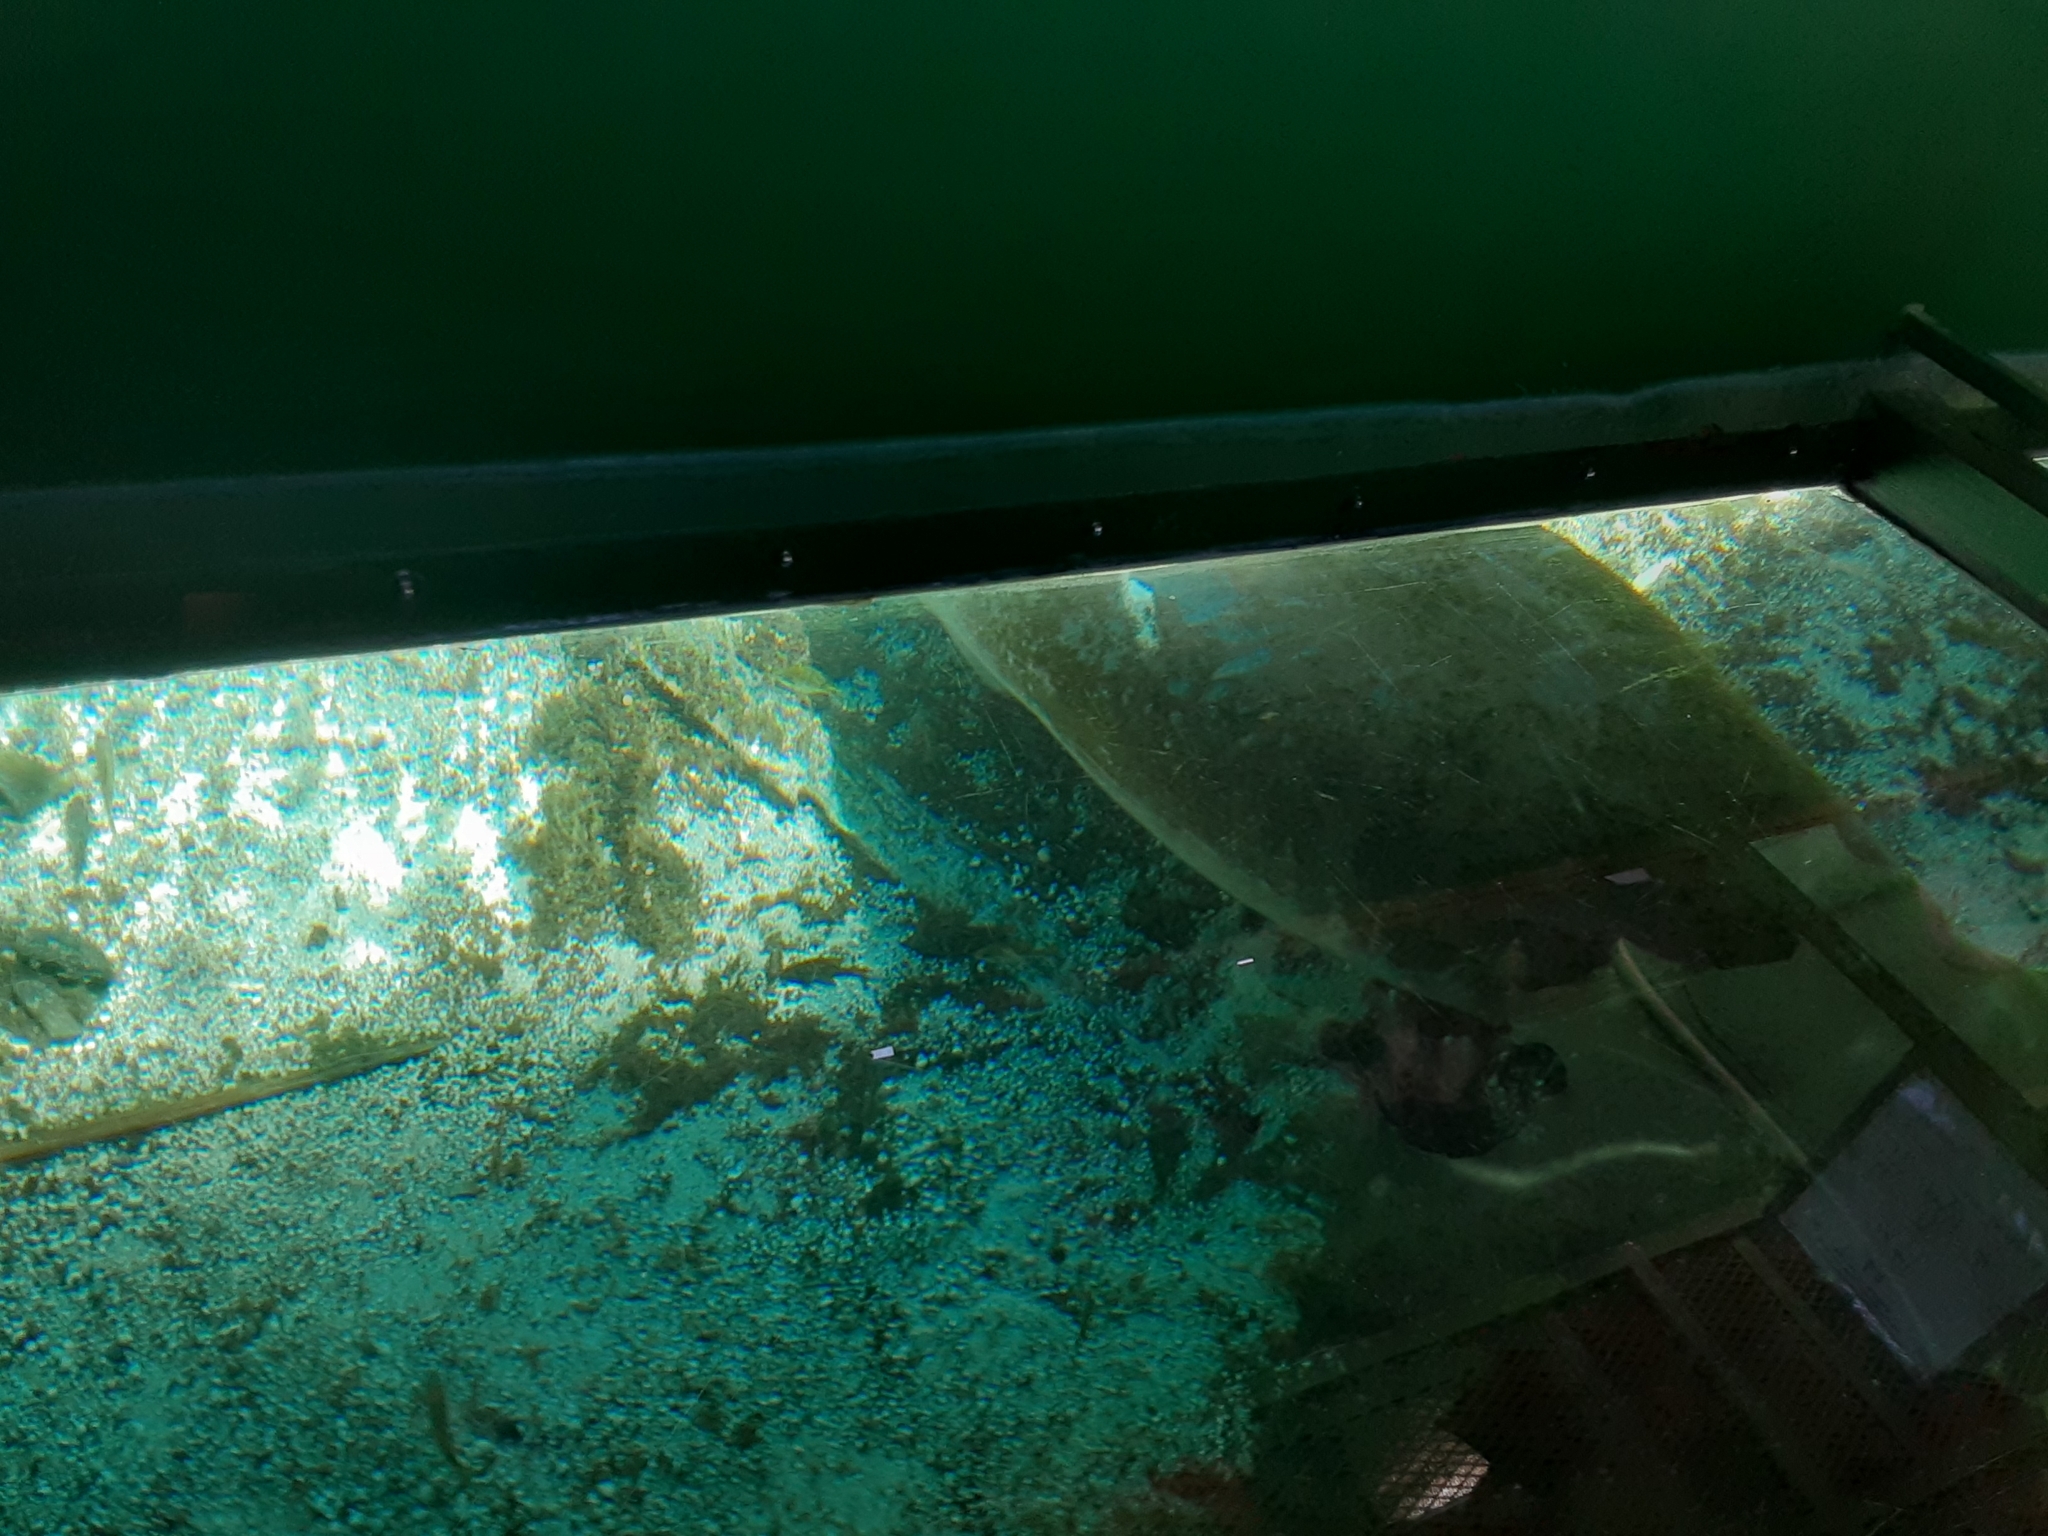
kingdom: Animalia
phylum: Chordata
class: Mammalia
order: Sirenia
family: Trichechidae
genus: Trichechus
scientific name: Trichechus manatus
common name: West indian manatee
